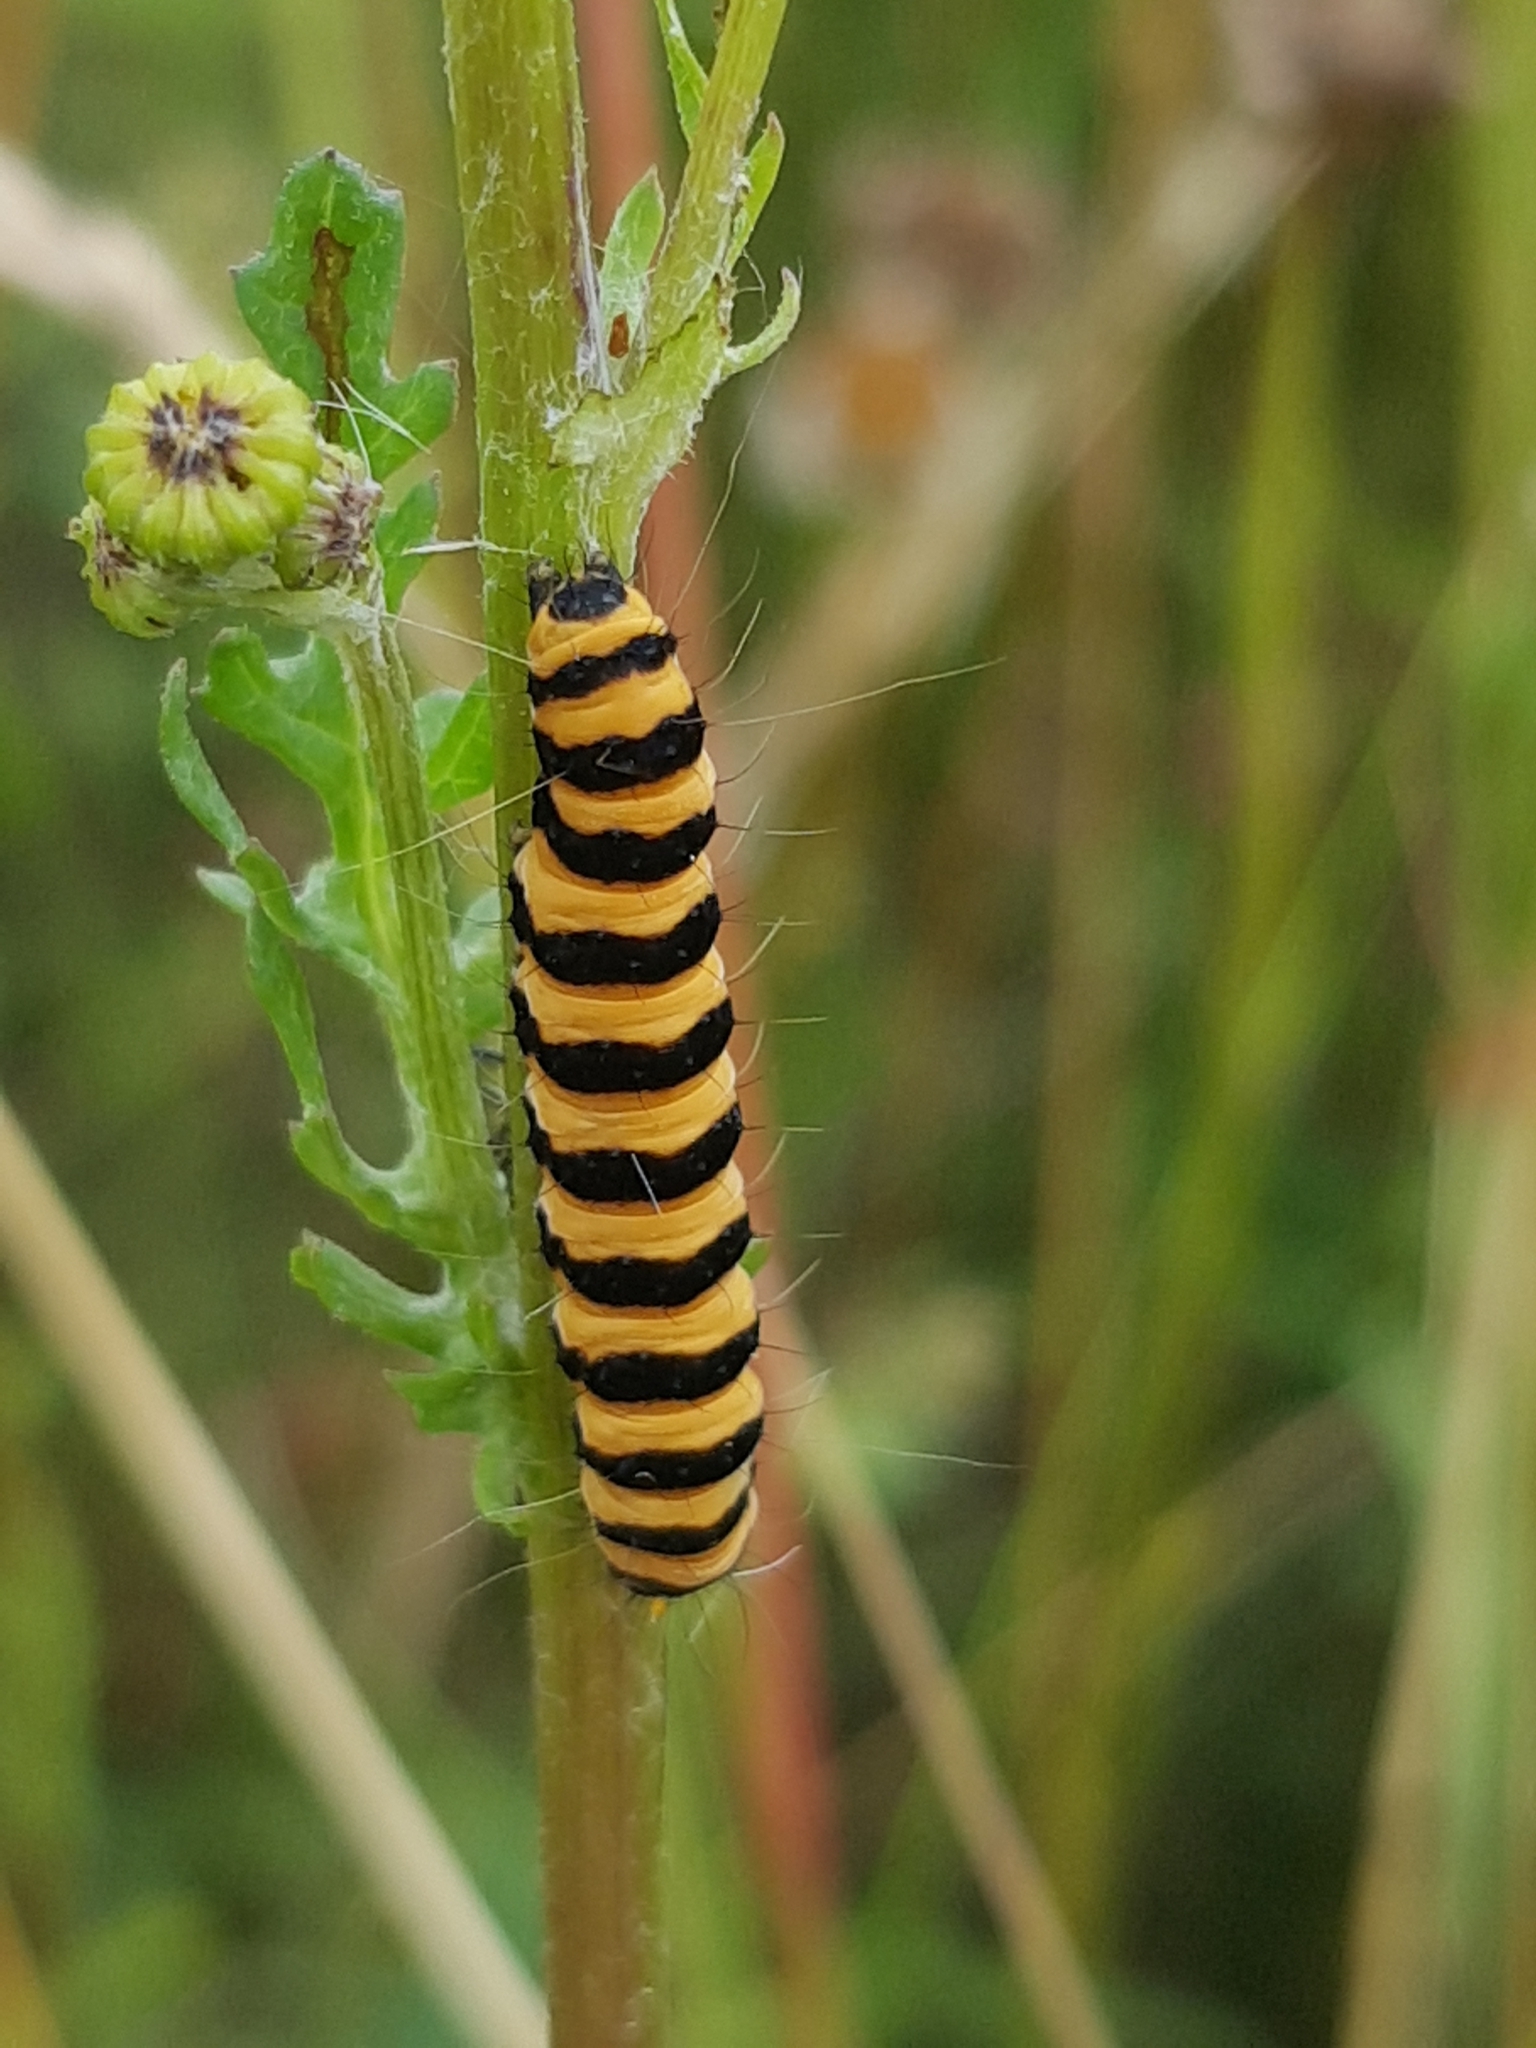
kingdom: Animalia
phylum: Arthropoda
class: Insecta
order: Lepidoptera
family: Erebidae
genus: Tyria
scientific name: Tyria jacobaeae
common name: Cinnabar
